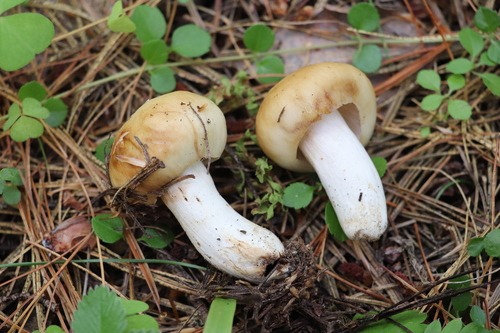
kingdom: Fungi
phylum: Basidiomycota
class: Agaricomycetes
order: Russulales
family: Russulaceae
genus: Russula
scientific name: Russula foetens
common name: Foetid russula
